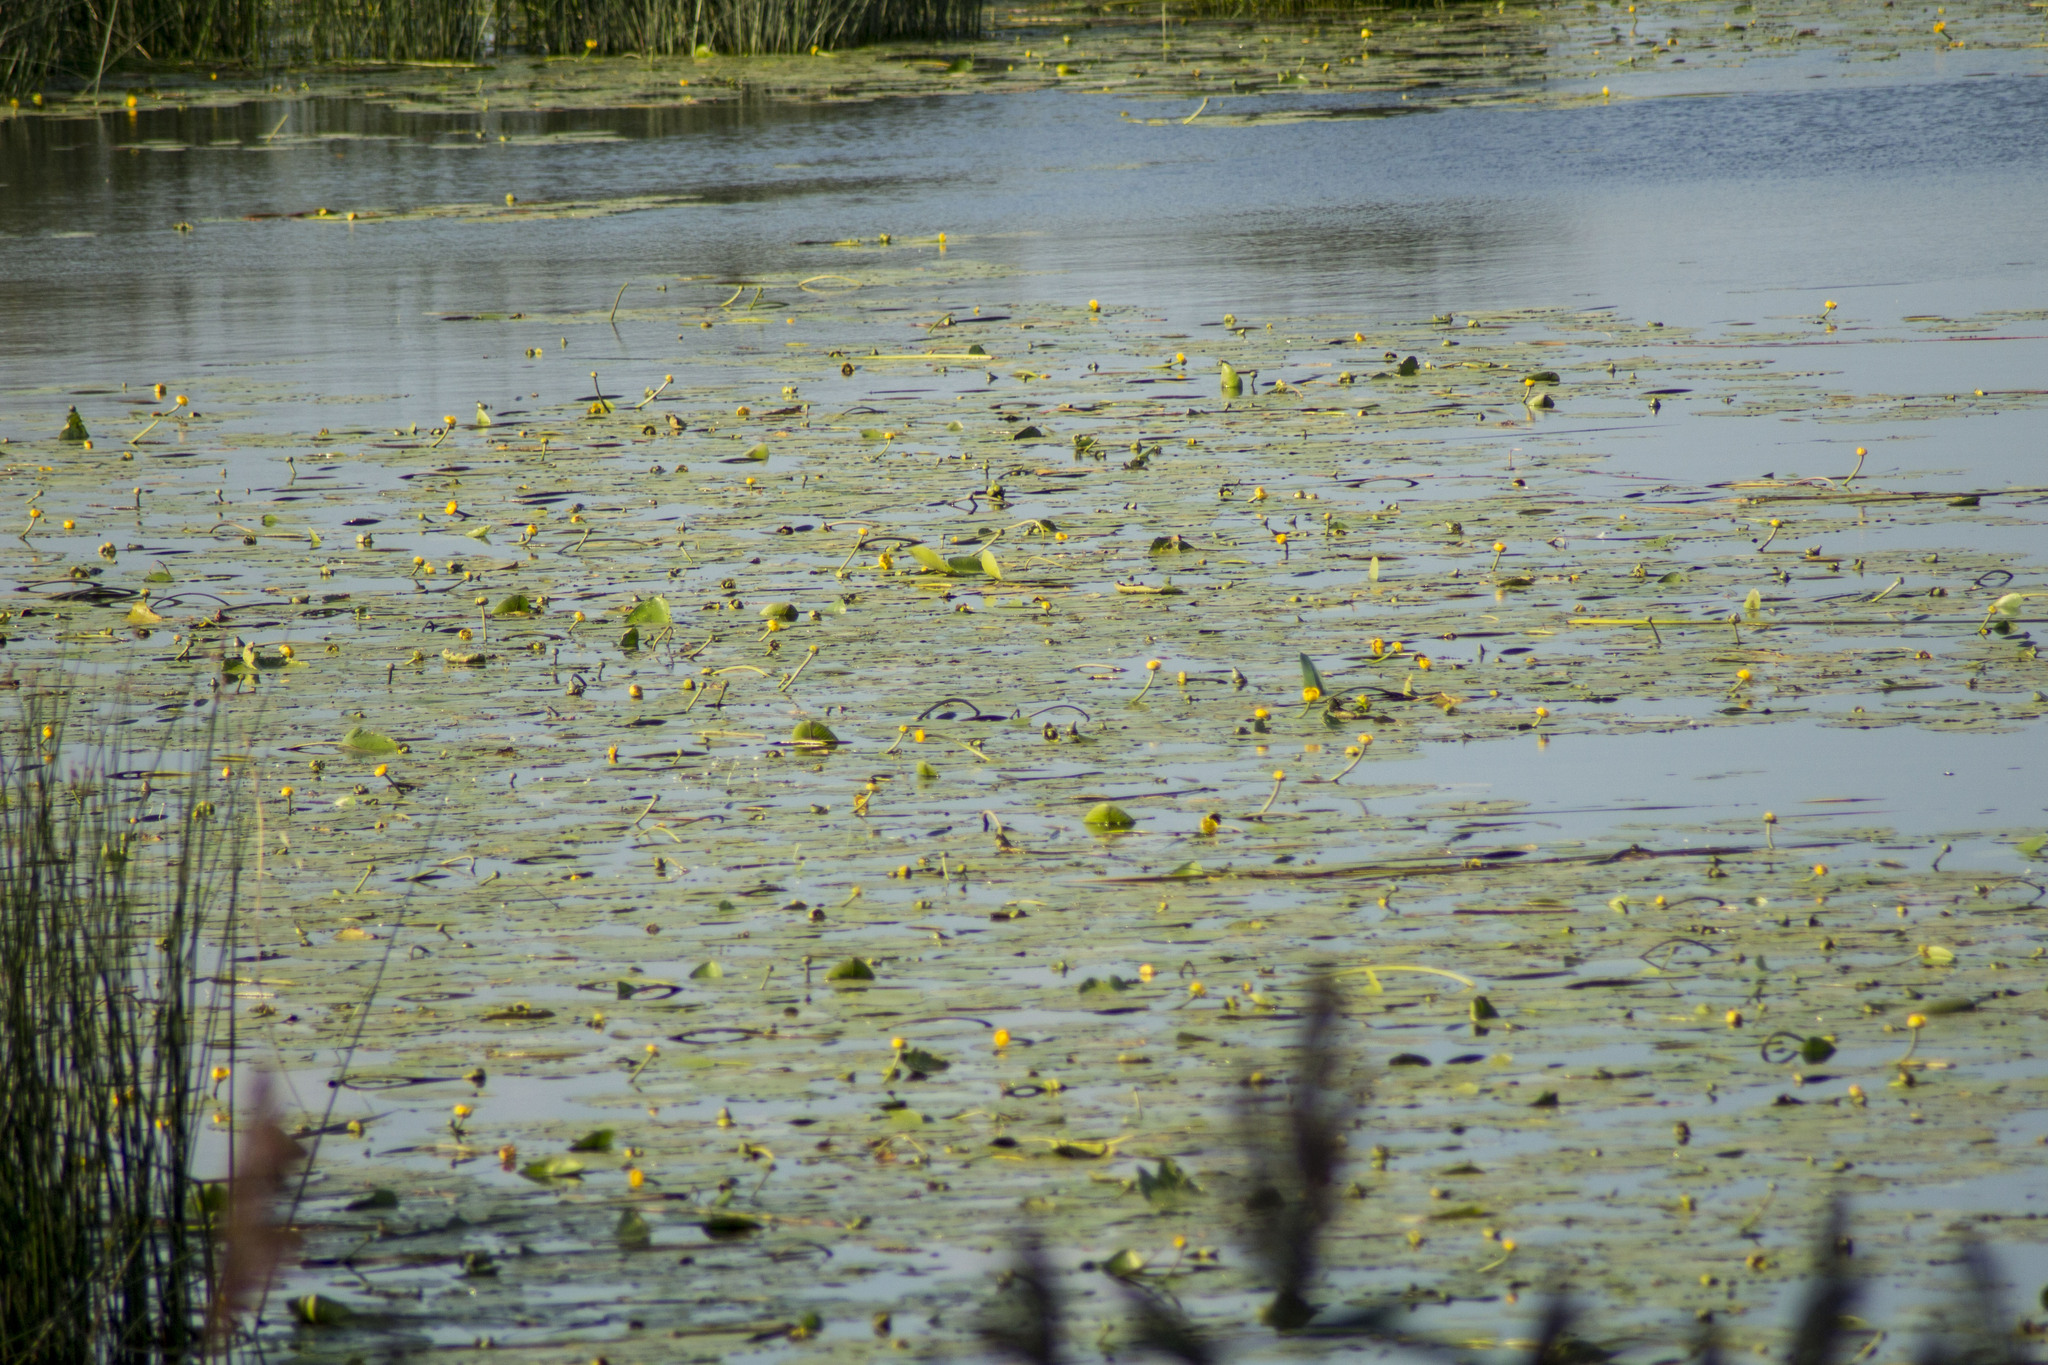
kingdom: Plantae
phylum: Tracheophyta
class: Magnoliopsida
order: Nymphaeales
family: Nymphaeaceae
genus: Nuphar
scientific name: Nuphar lutea
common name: Yellow water-lily
